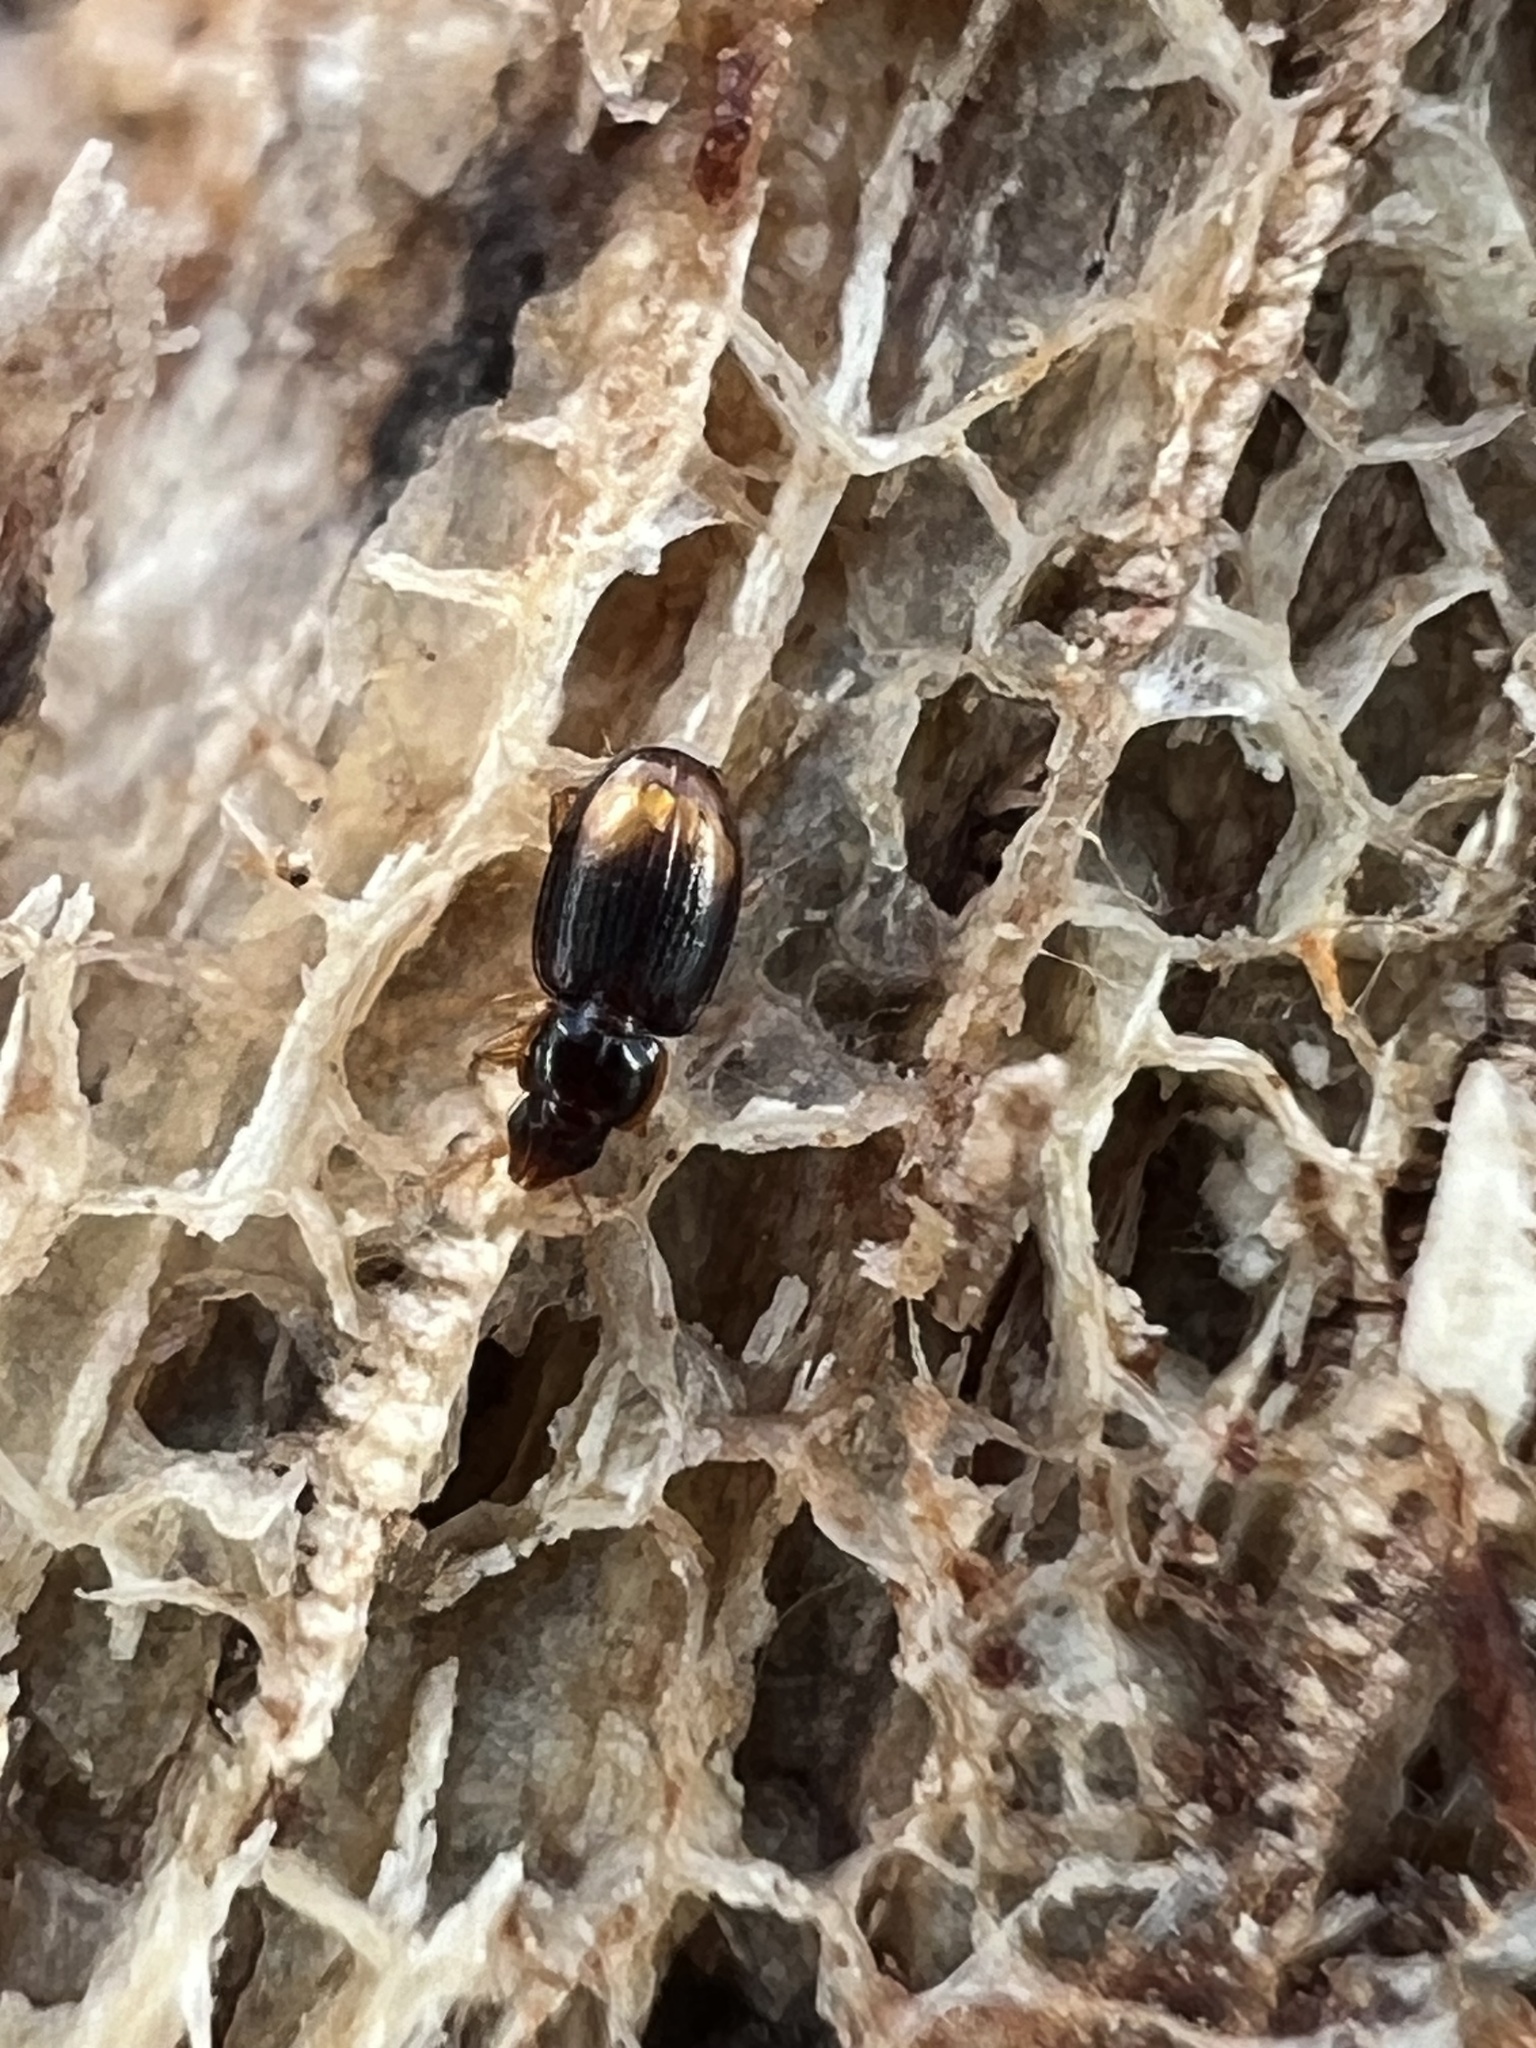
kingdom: Animalia
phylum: Arthropoda
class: Insecta
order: Coleoptera
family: Carabidae
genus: Mioptachys
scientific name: Mioptachys flavicauda
